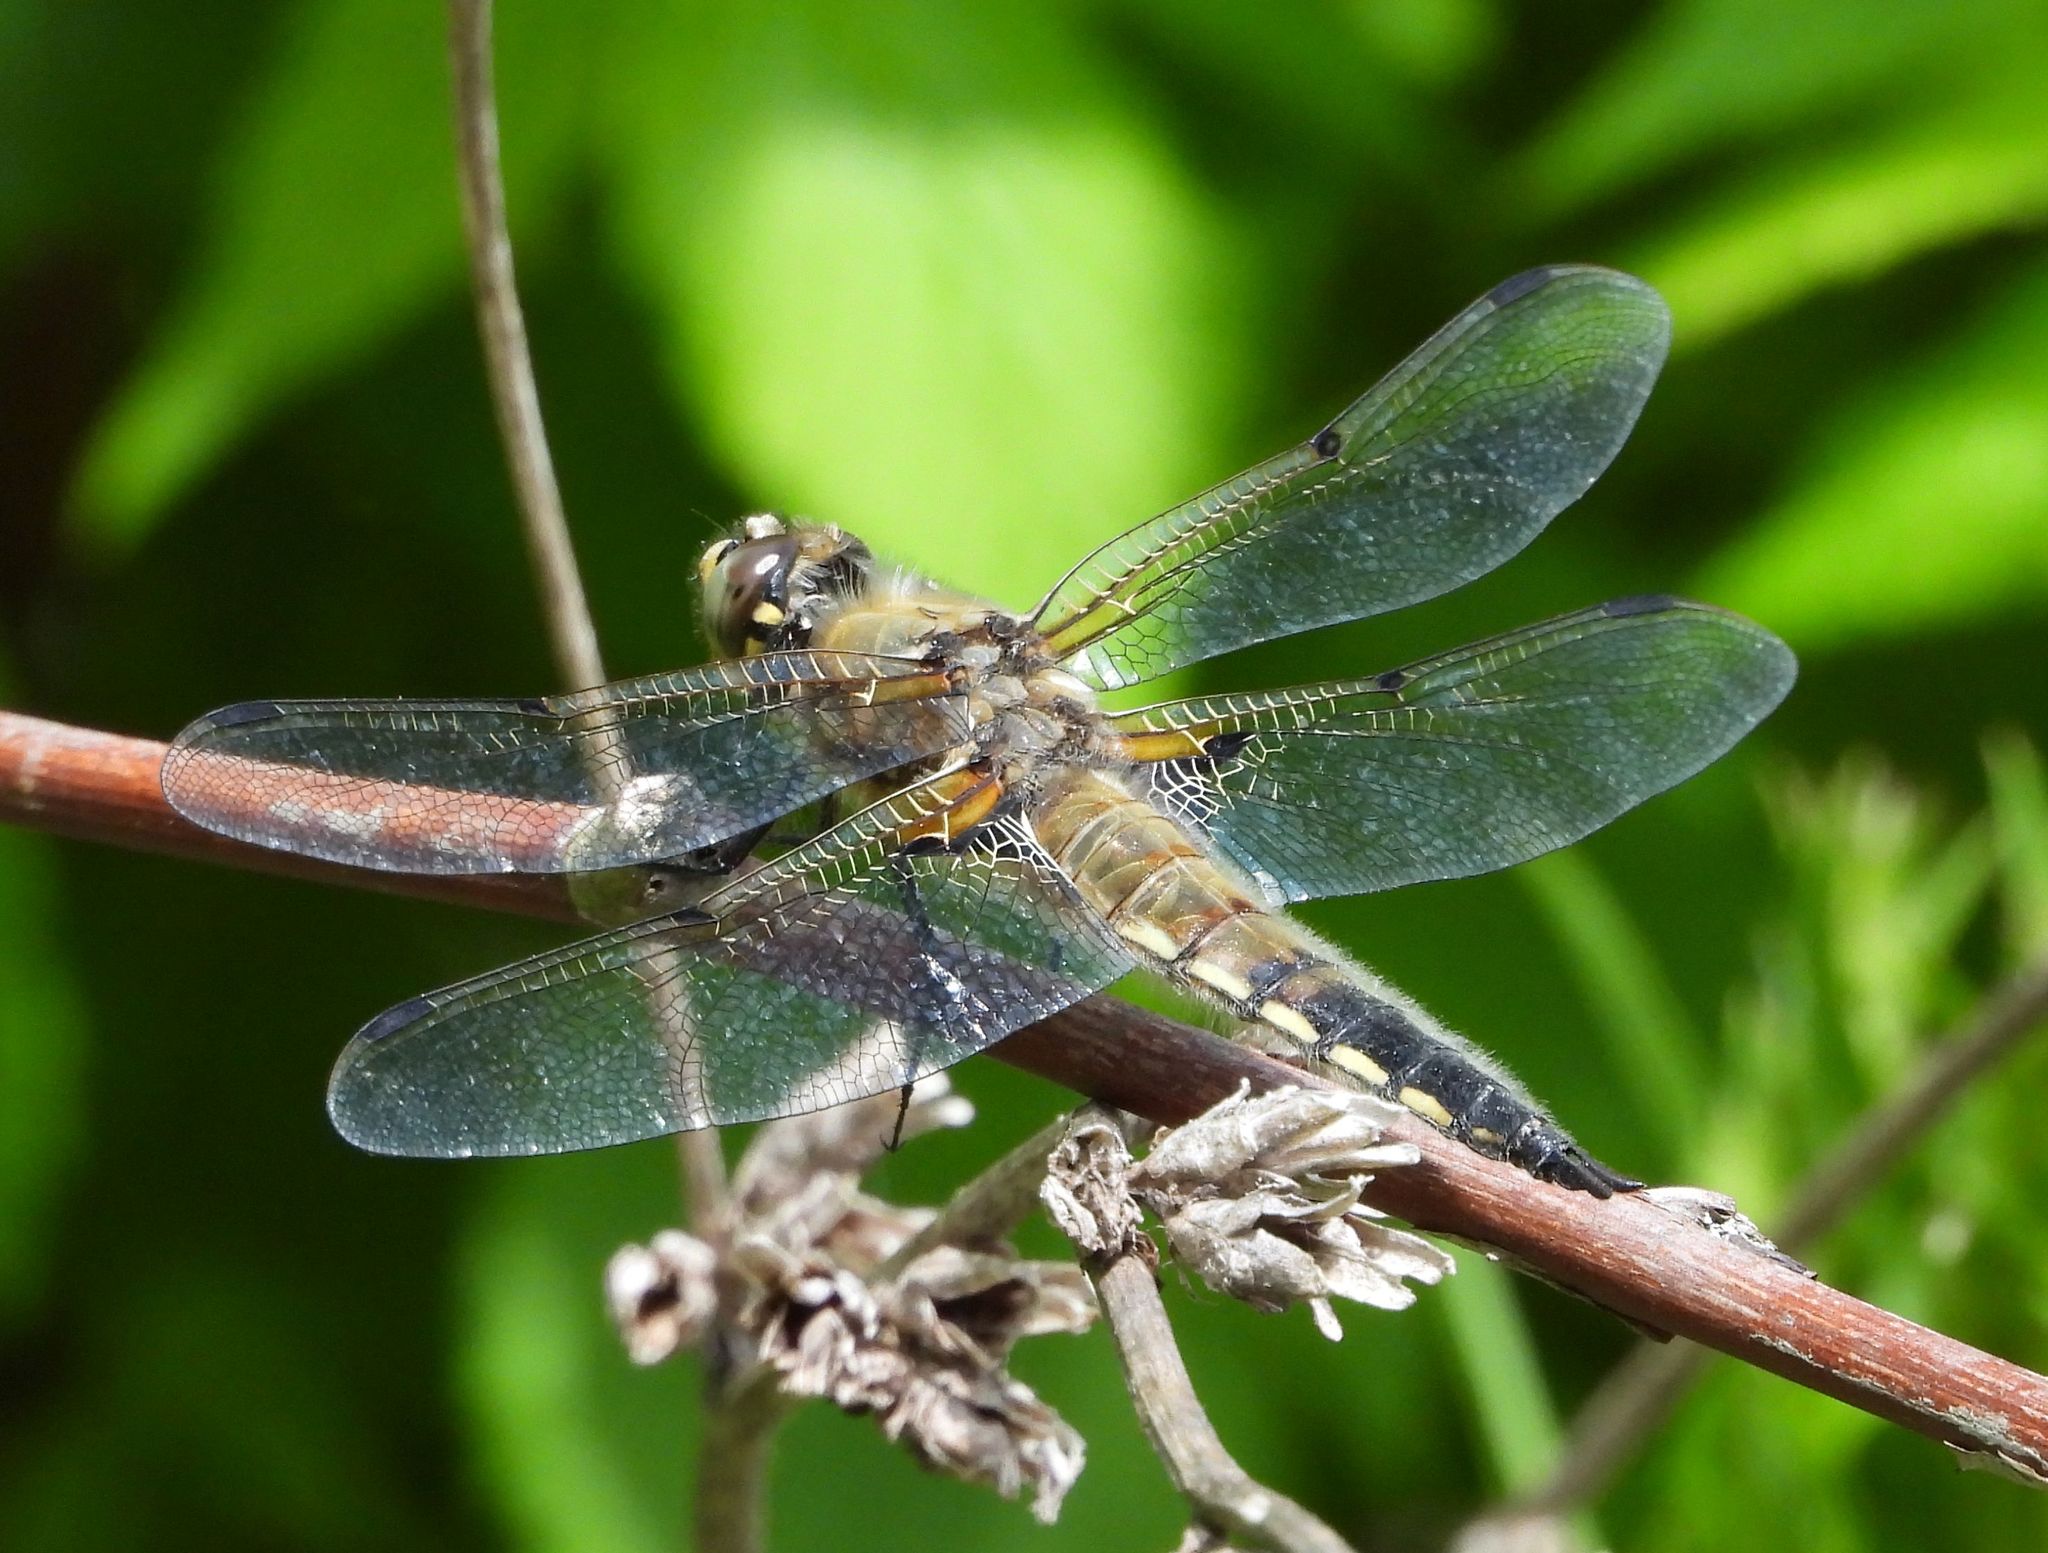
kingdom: Animalia
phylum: Arthropoda
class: Insecta
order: Odonata
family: Libellulidae
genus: Libellula
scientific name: Libellula quadrimaculata
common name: Four-spotted chaser
